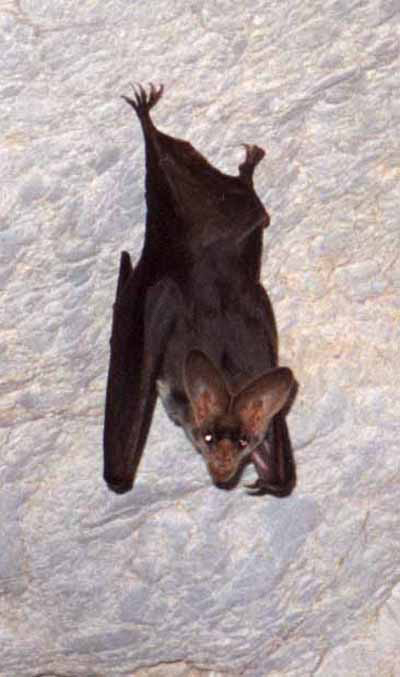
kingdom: Animalia
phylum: Chordata
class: Mammalia
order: Chiroptera
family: Megadermatidae
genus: Macroderma
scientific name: Macroderma gigas
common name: Australian false vampire bat
